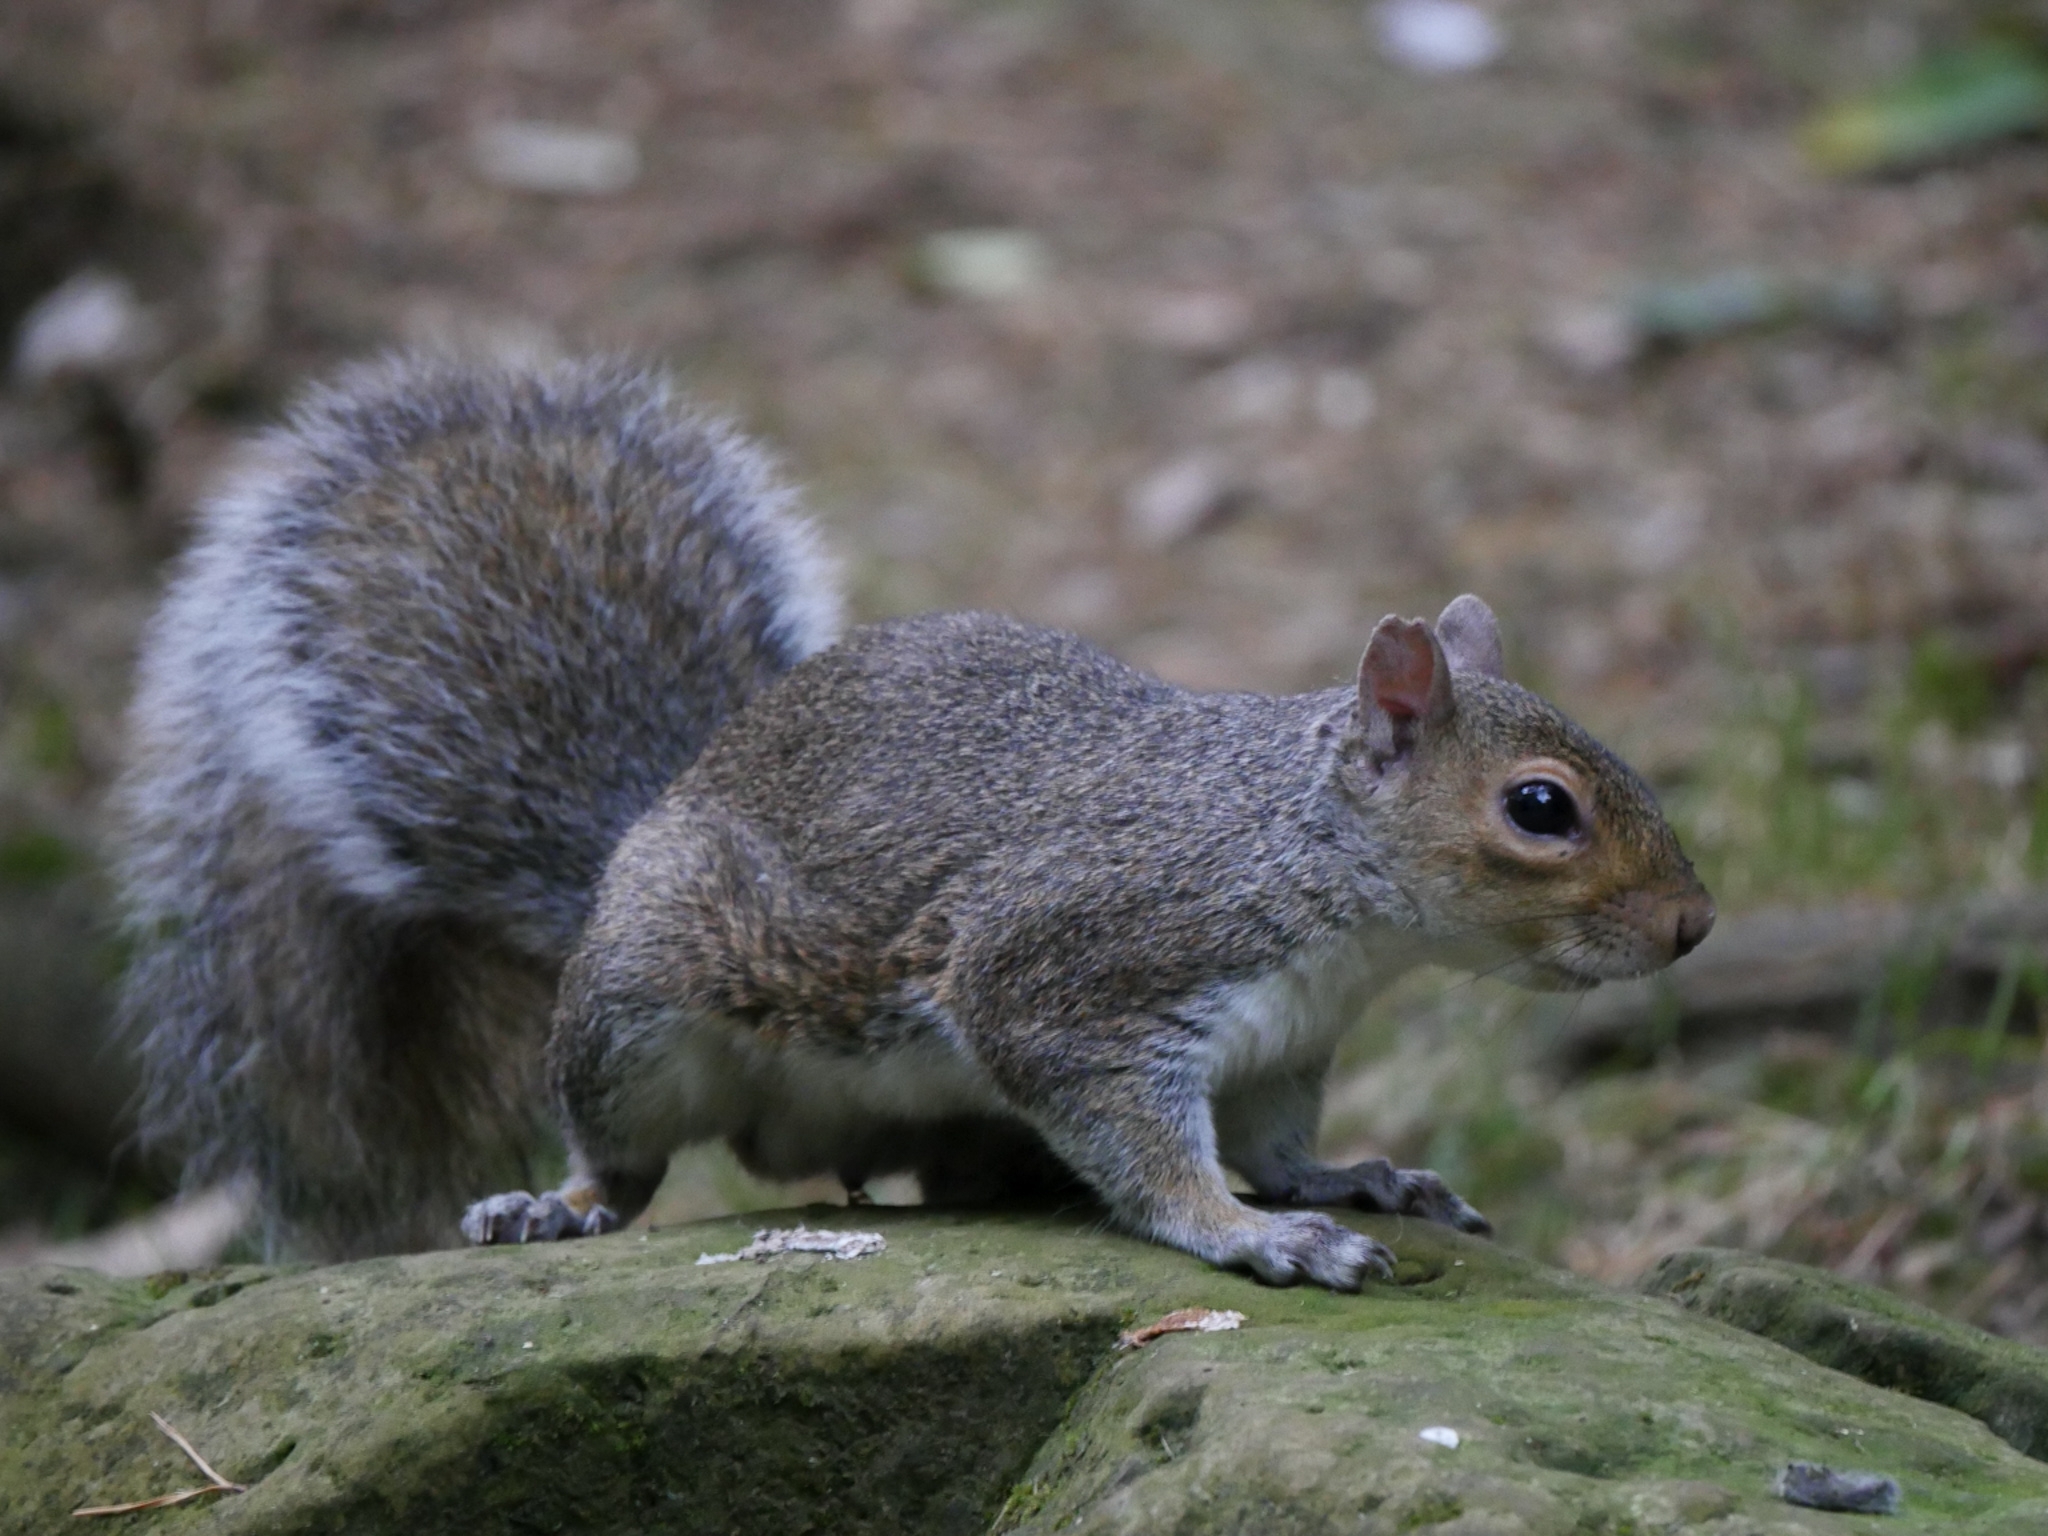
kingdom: Animalia
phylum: Chordata
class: Mammalia
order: Rodentia
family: Sciuridae
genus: Sciurus
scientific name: Sciurus carolinensis
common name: Eastern gray squirrel
